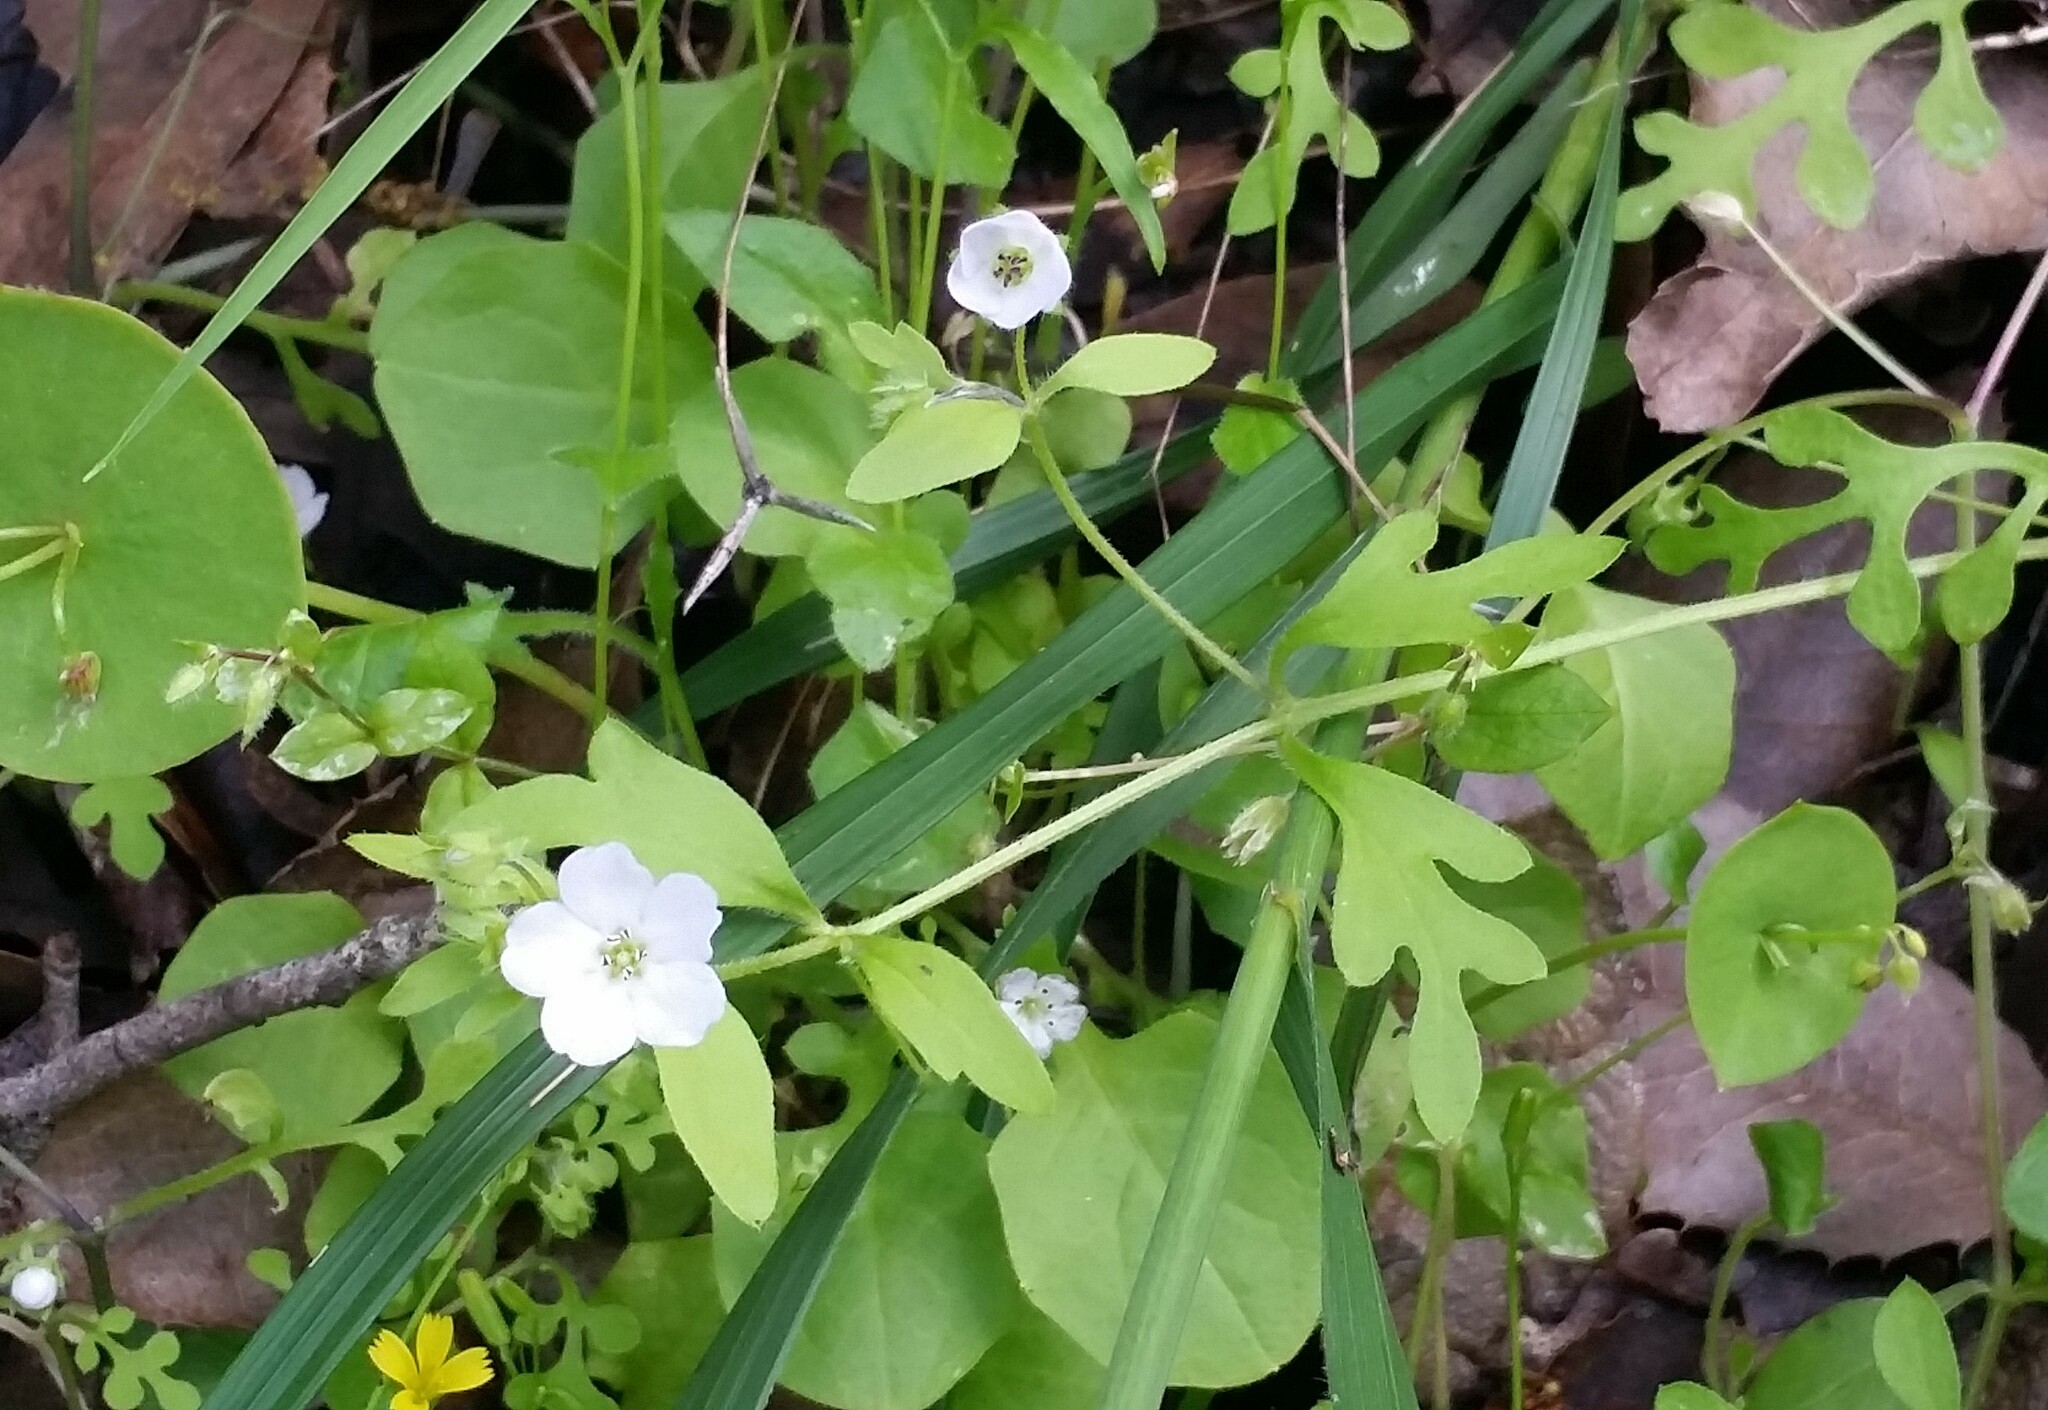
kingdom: Plantae
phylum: Tracheophyta
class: Magnoliopsida
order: Boraginales
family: Hydrophyllaceae
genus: Nemophila
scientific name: Nemophila heterophylla
